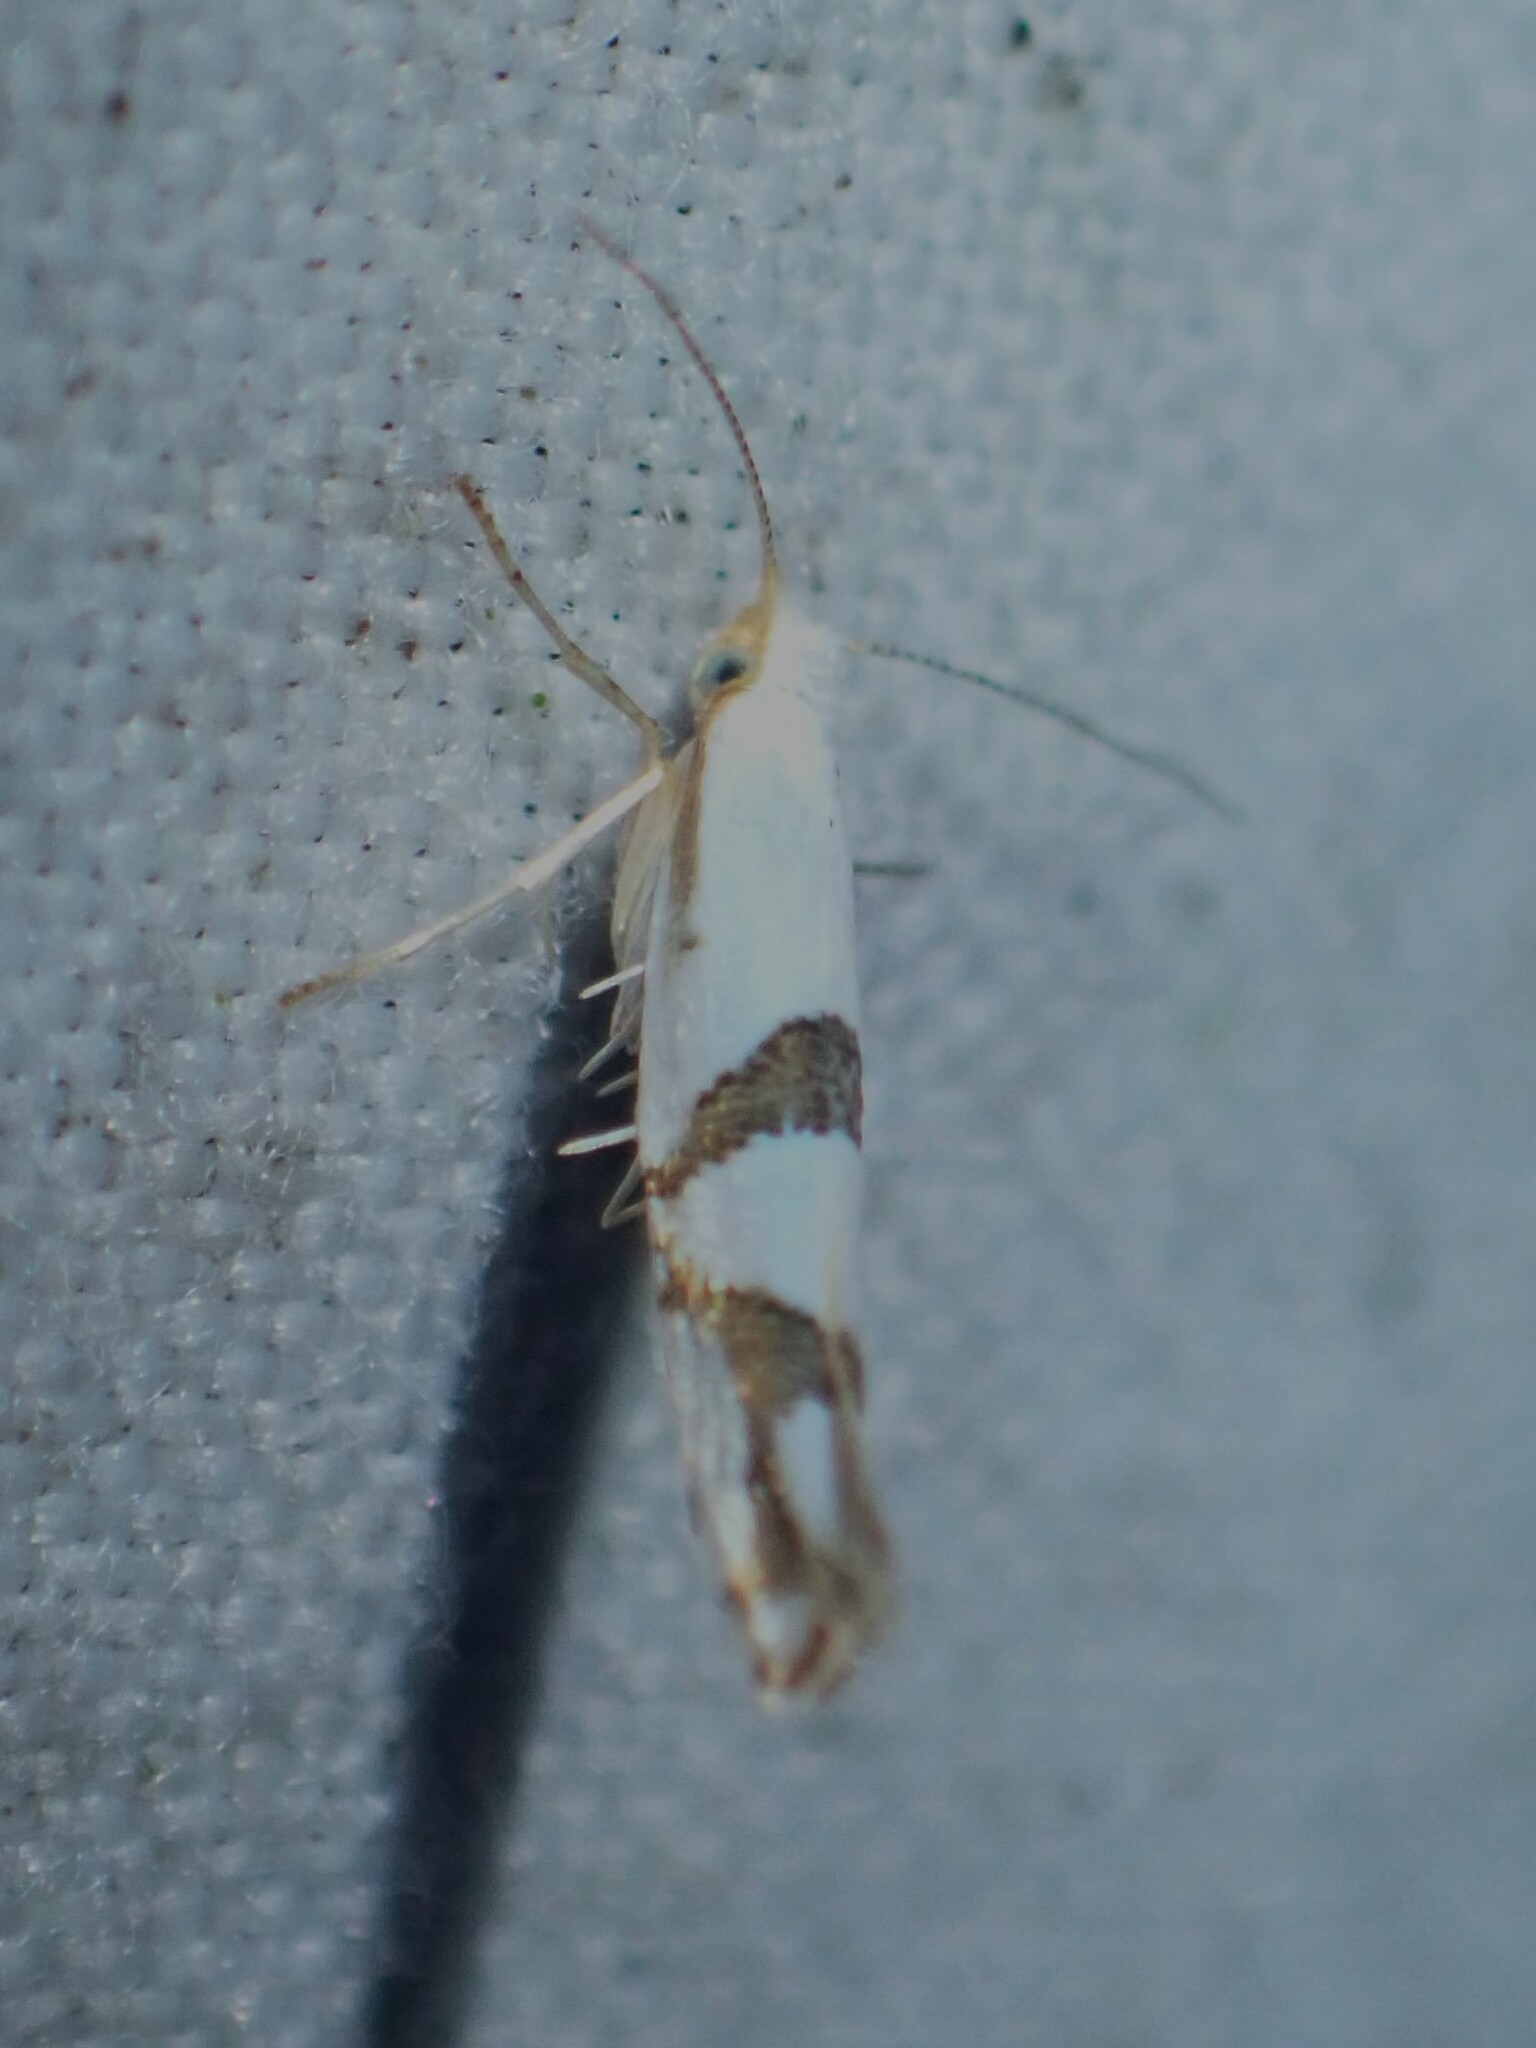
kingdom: Animalia
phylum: Arthropoda
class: Insecta
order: Lepidoptera
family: Argyresthiidae
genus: Argyresthia
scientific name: Argyresthia oreasella
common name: Cherry shoot borer moth
